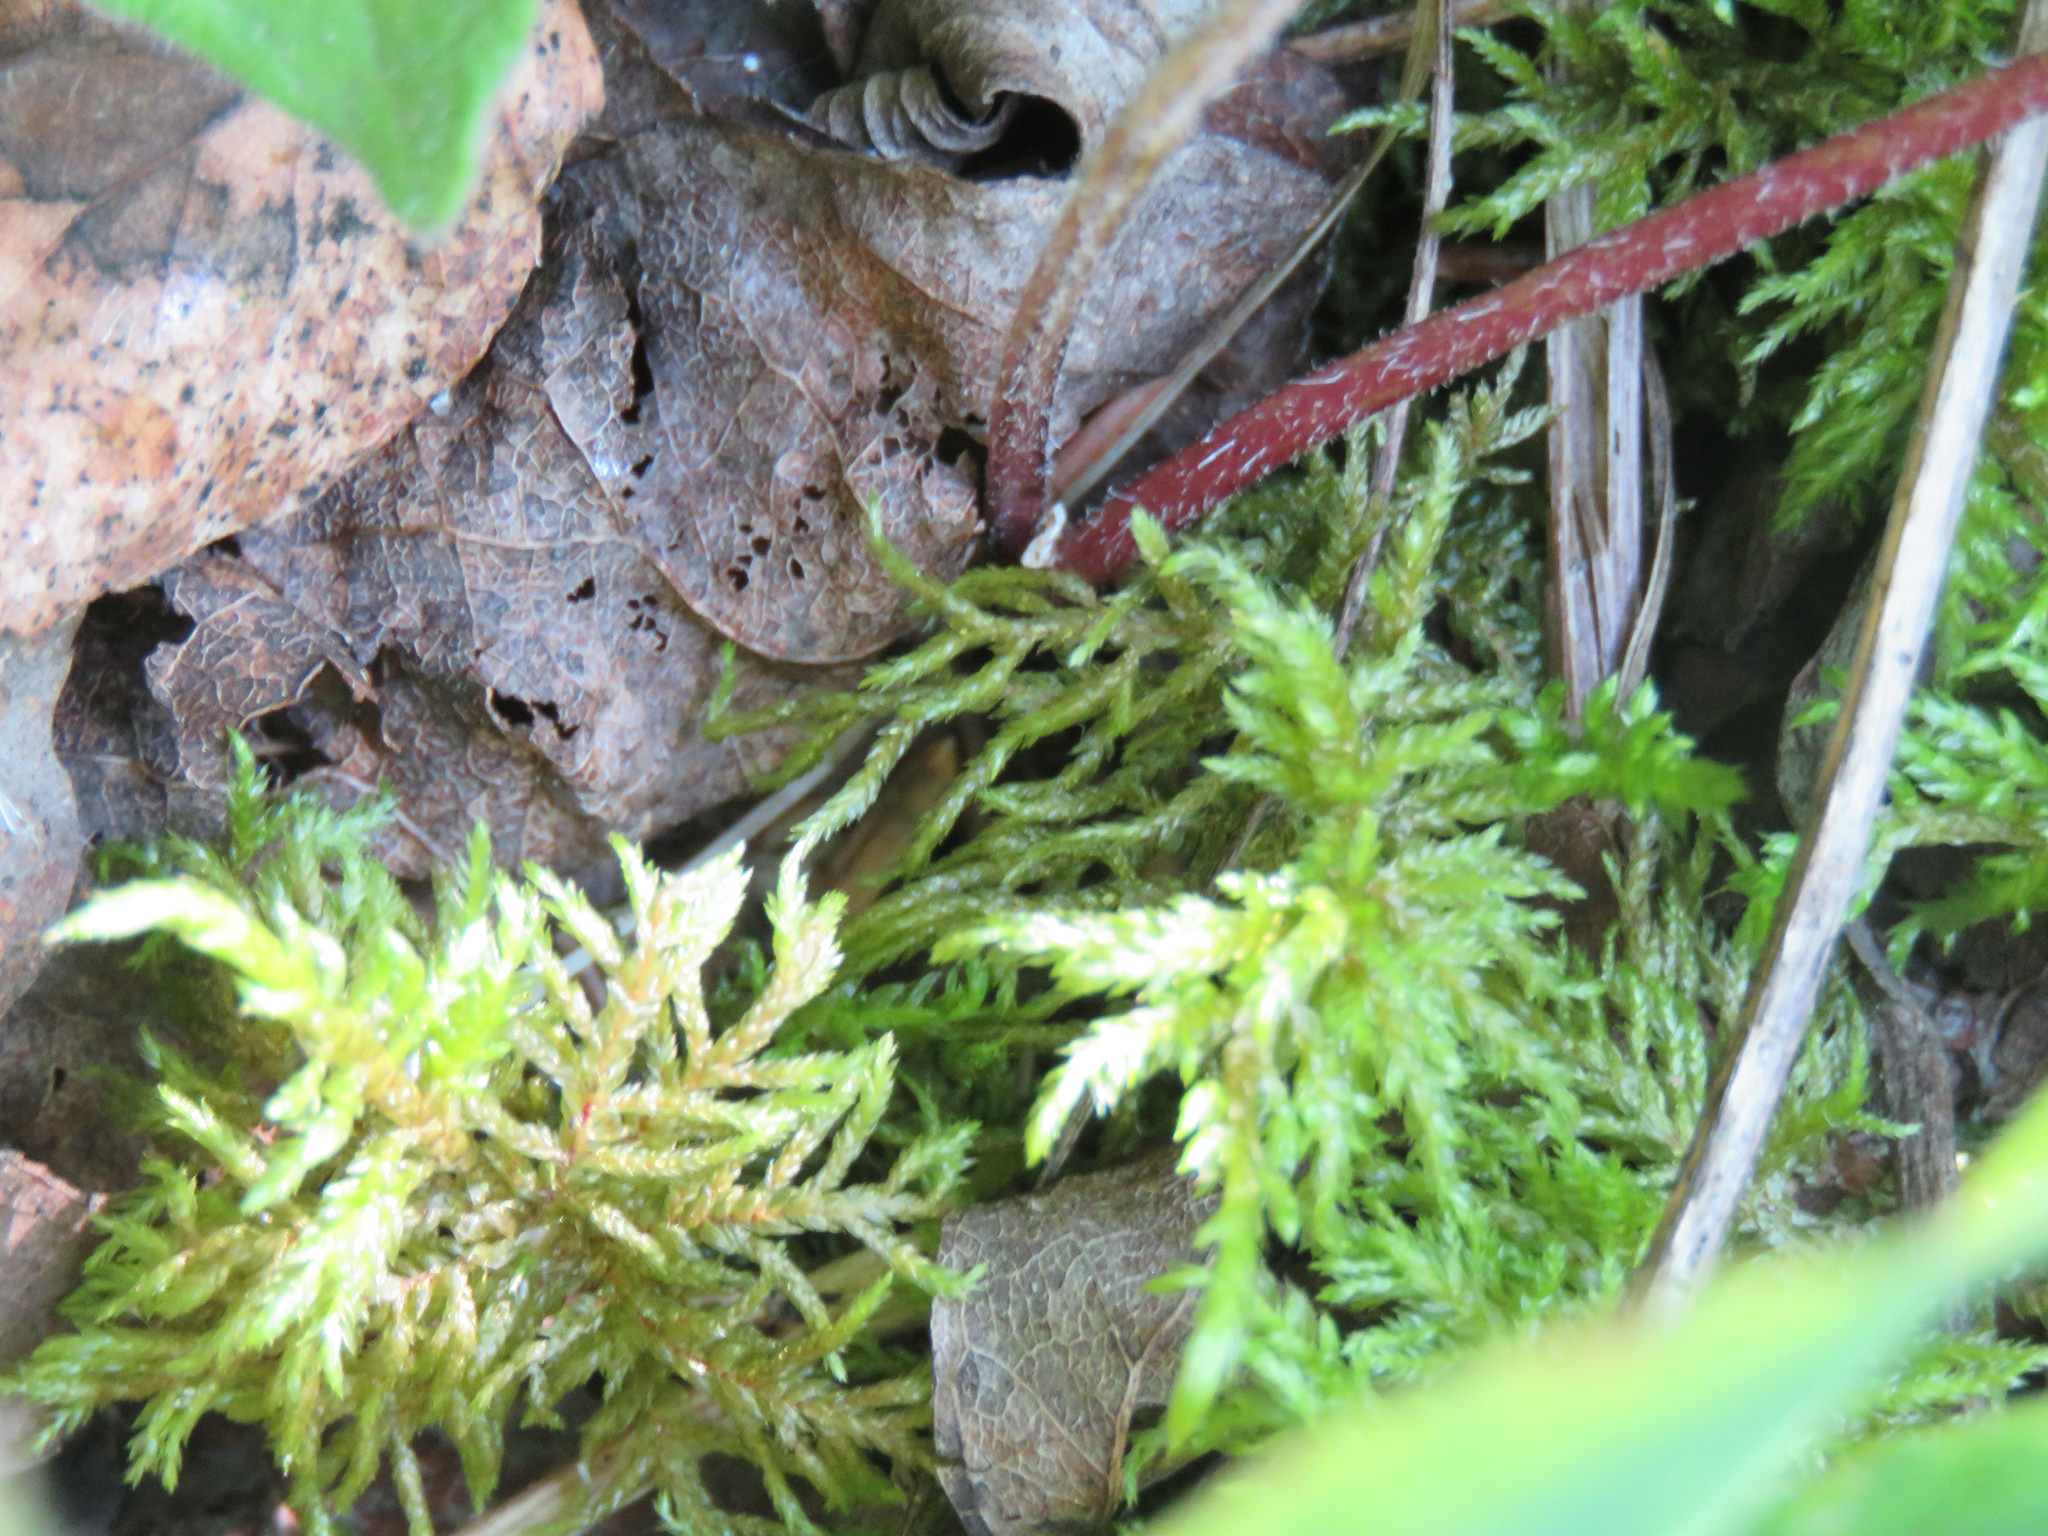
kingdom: Plantae
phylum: Bryophyta
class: Bryopsida
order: Hypnales
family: Hylocomiaceae
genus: Hylocomium
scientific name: Hylocomium splendens
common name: Stairstep moss
